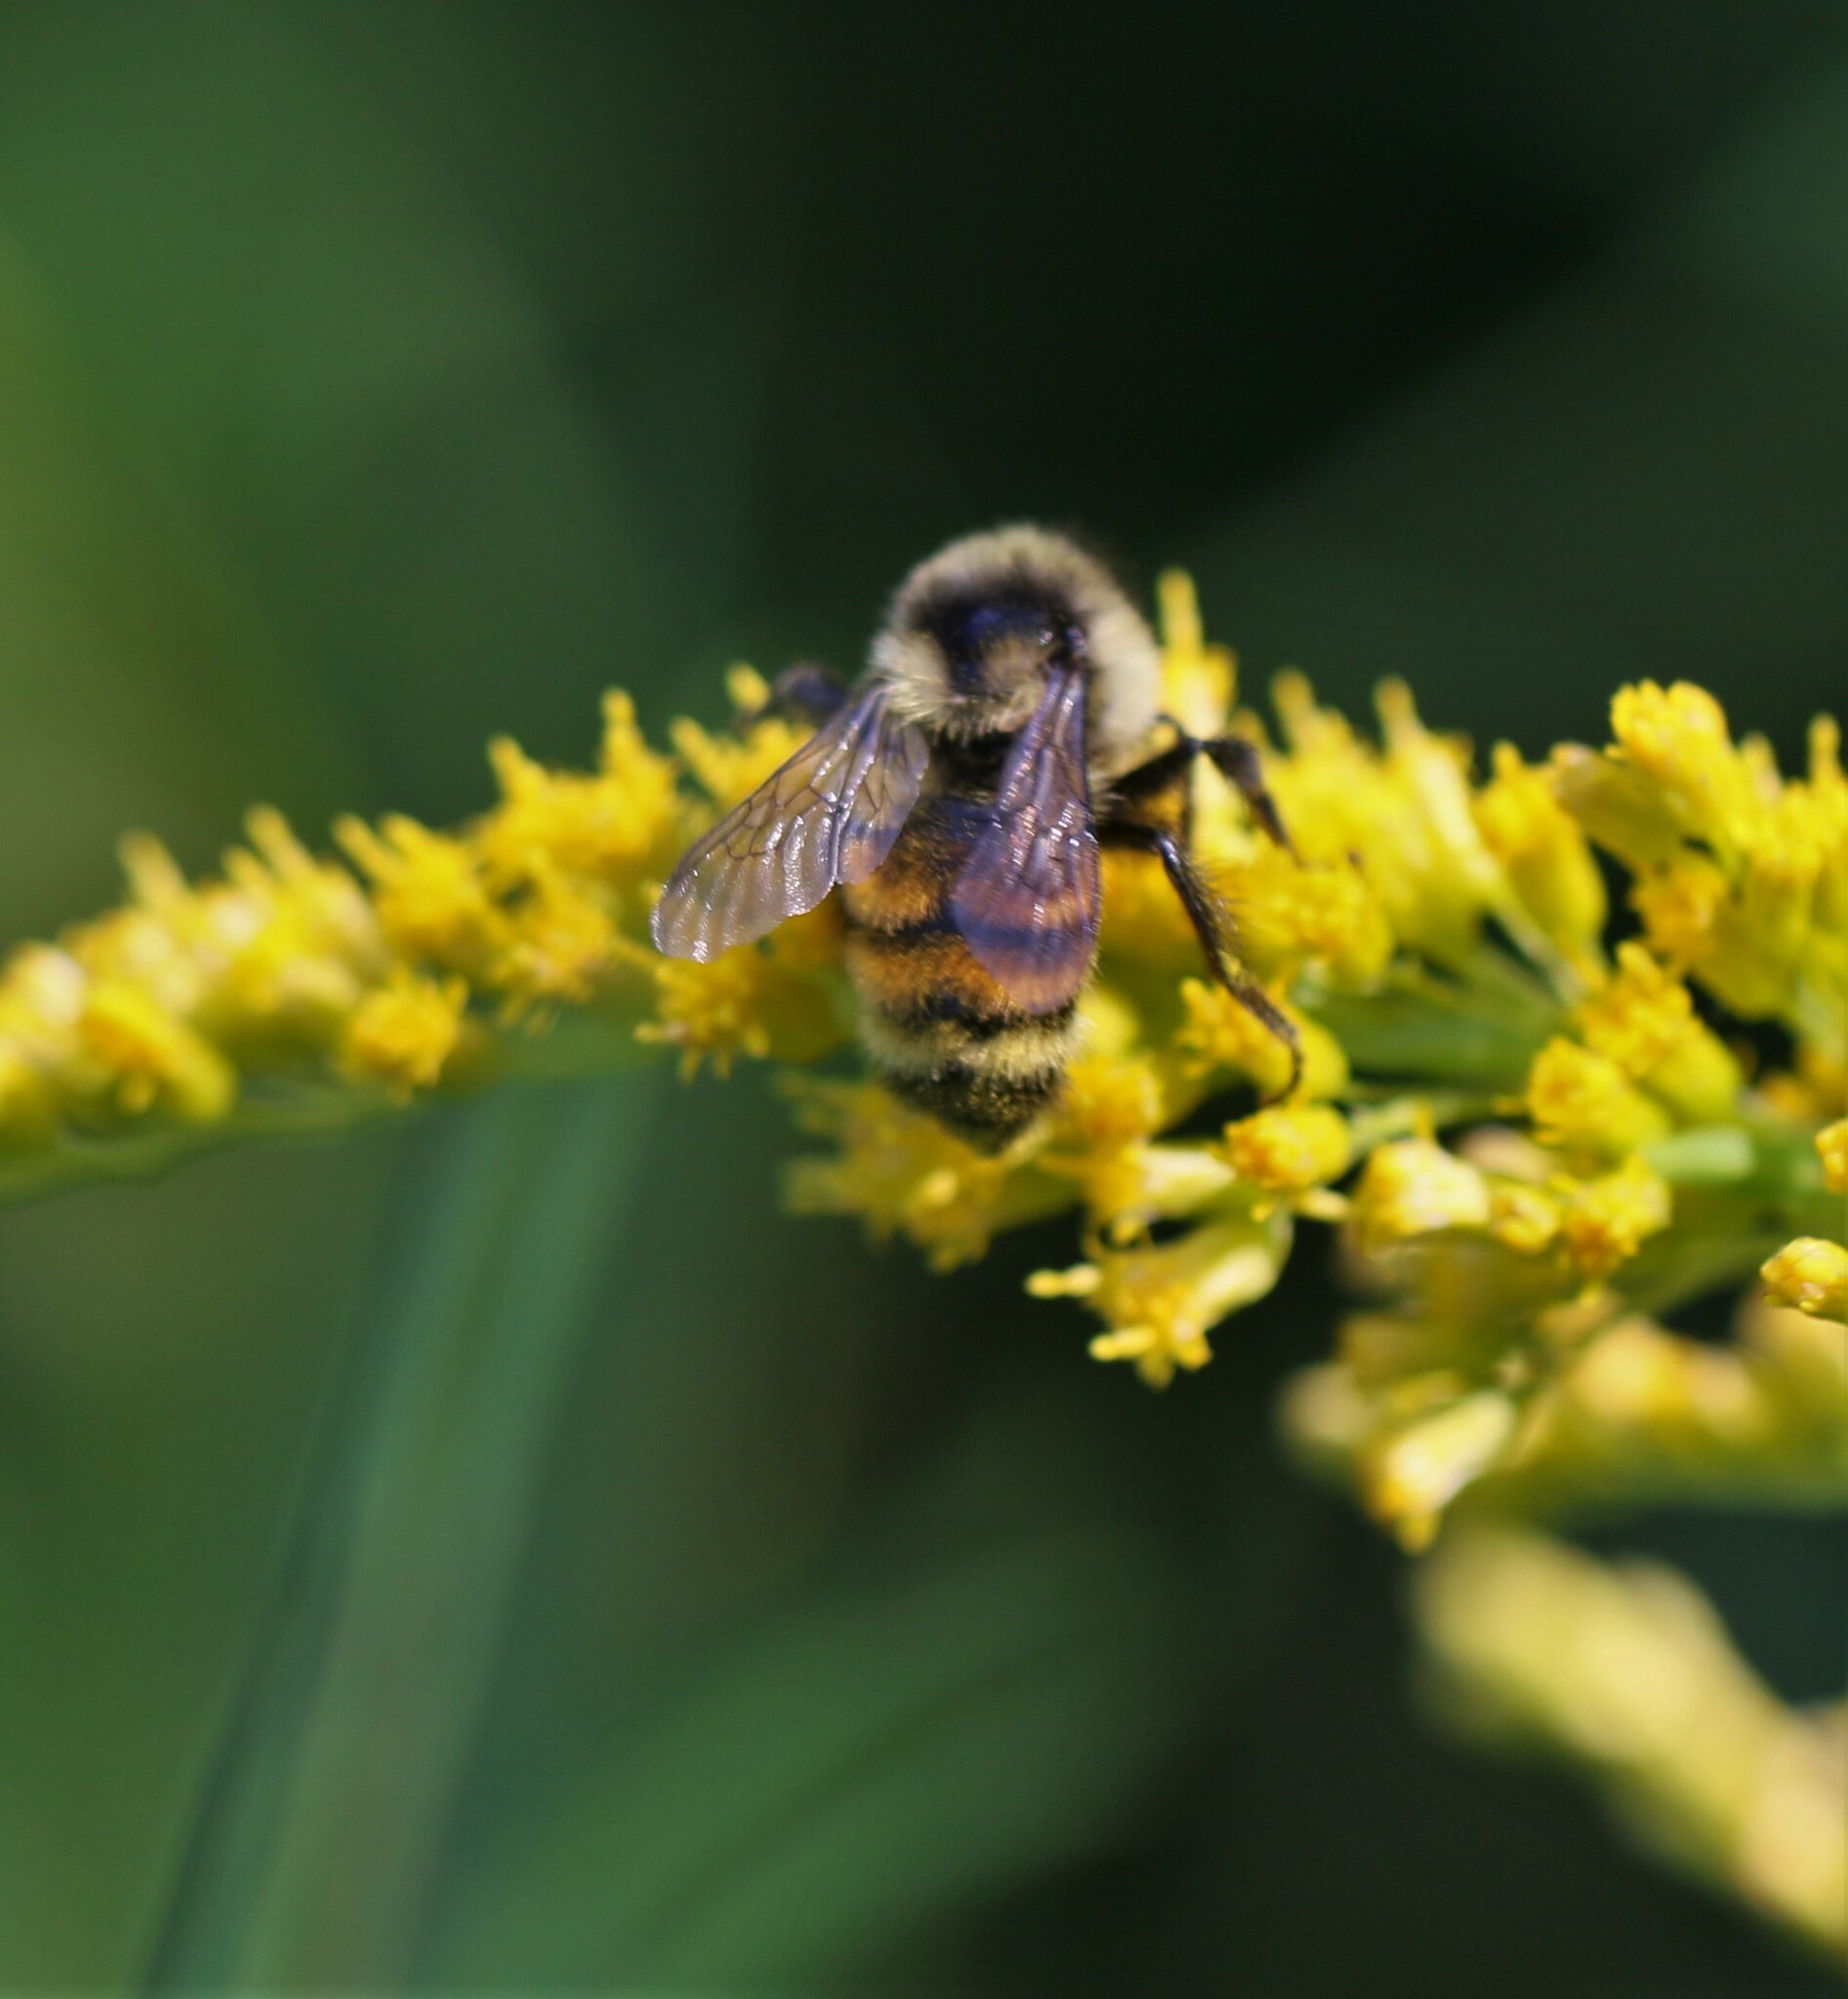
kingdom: Animalia
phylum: Arthropoda
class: Insecta
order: Hymenoptera
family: Apidae
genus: Bombus
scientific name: Bombus ternarius
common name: Tri-colored bumble bee
